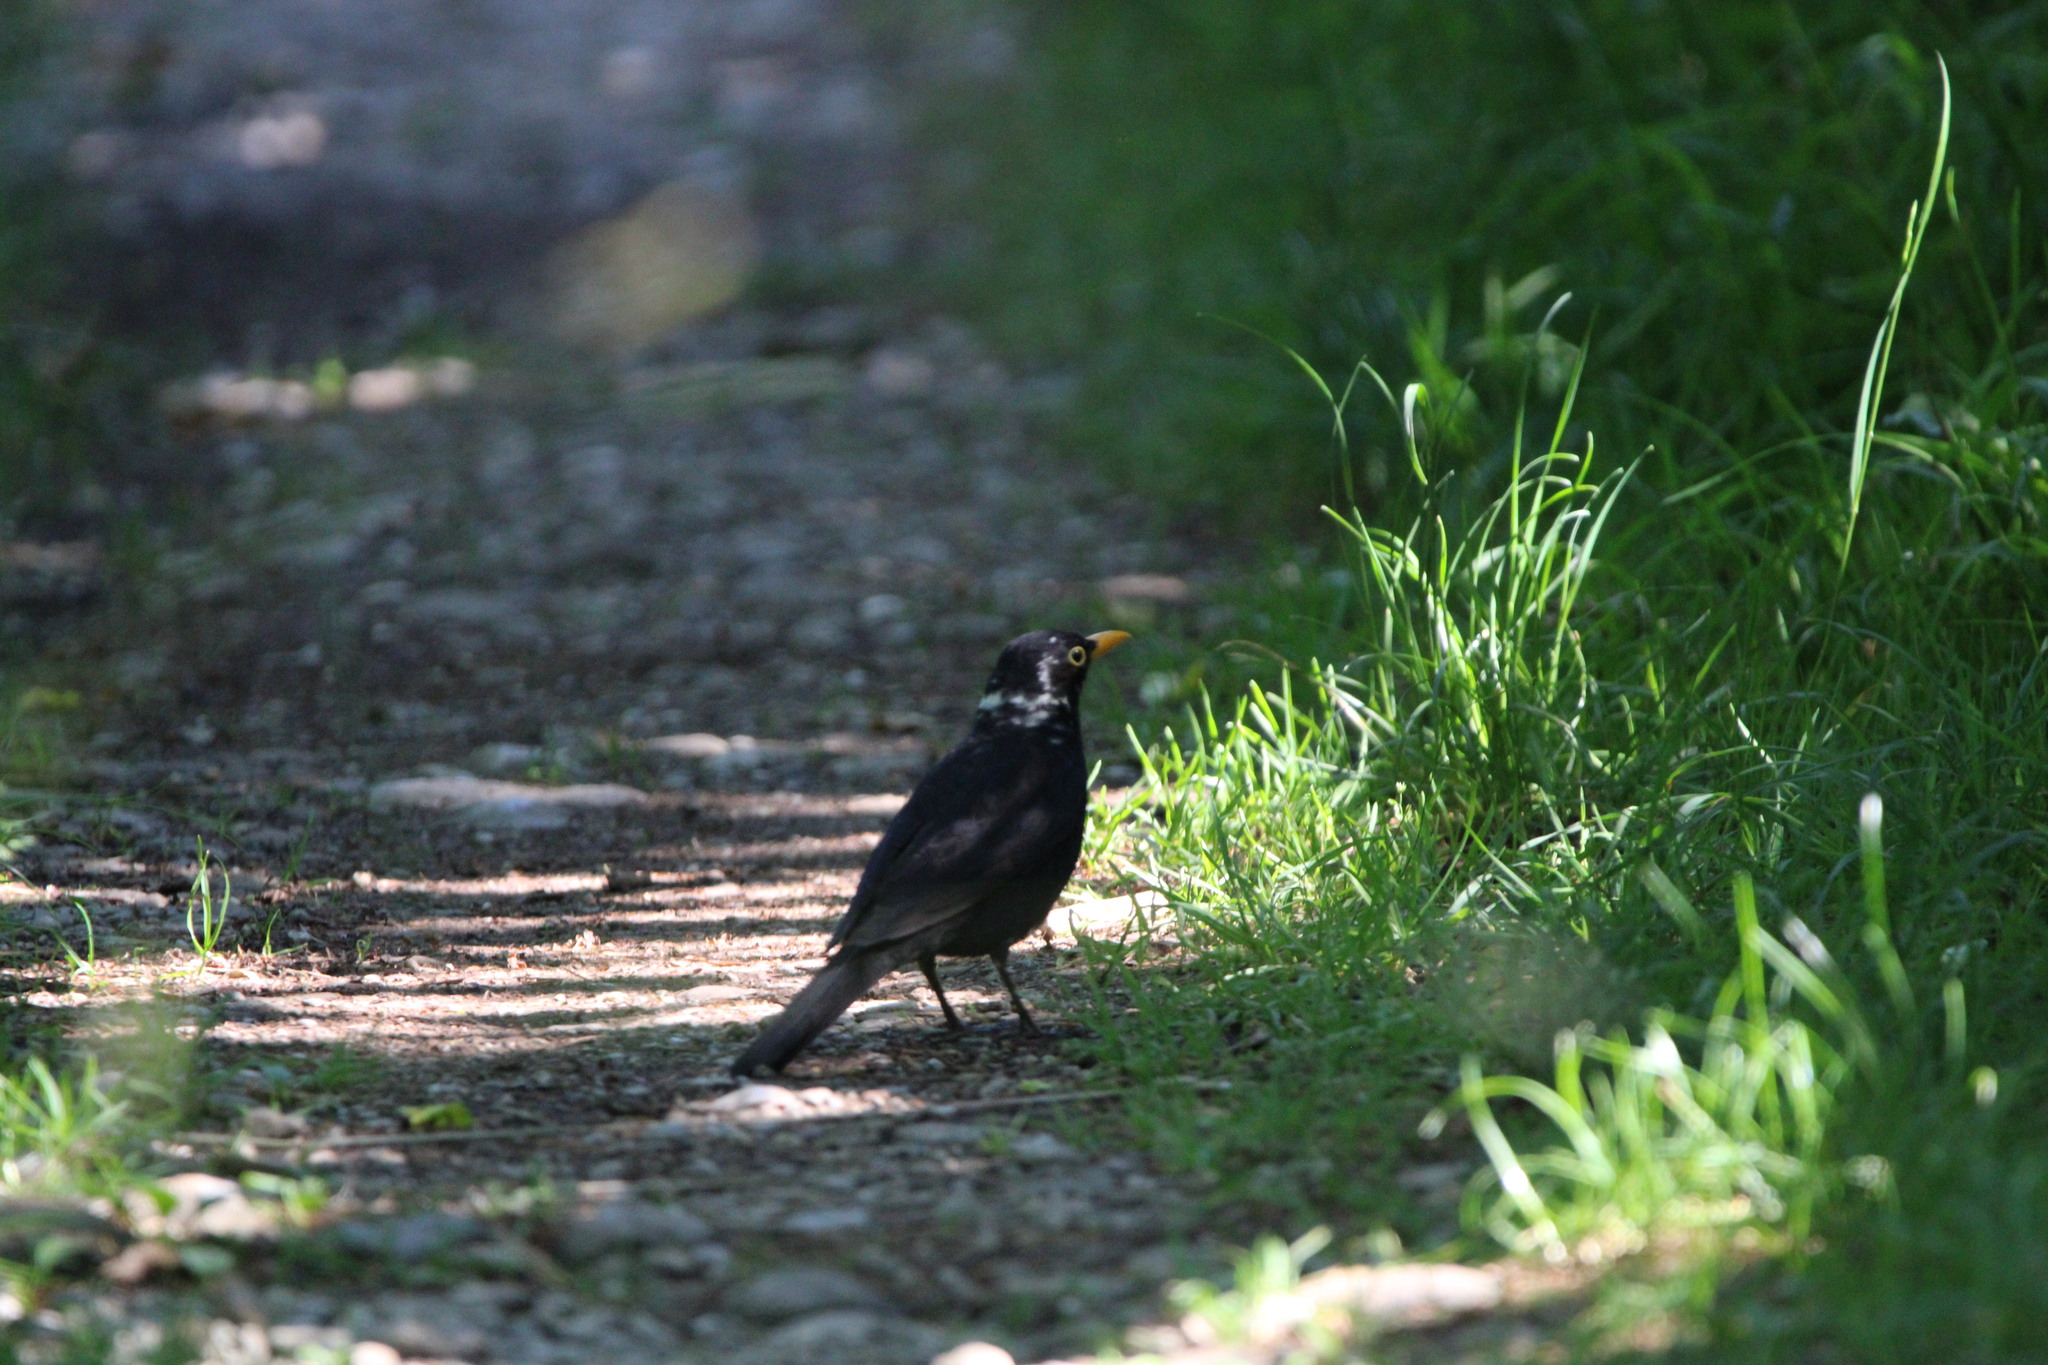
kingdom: Animalia
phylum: Chordata
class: Aves
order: Passeriformes
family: Turdidae
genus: Turdus
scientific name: Turdus merula
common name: Common blackbird
